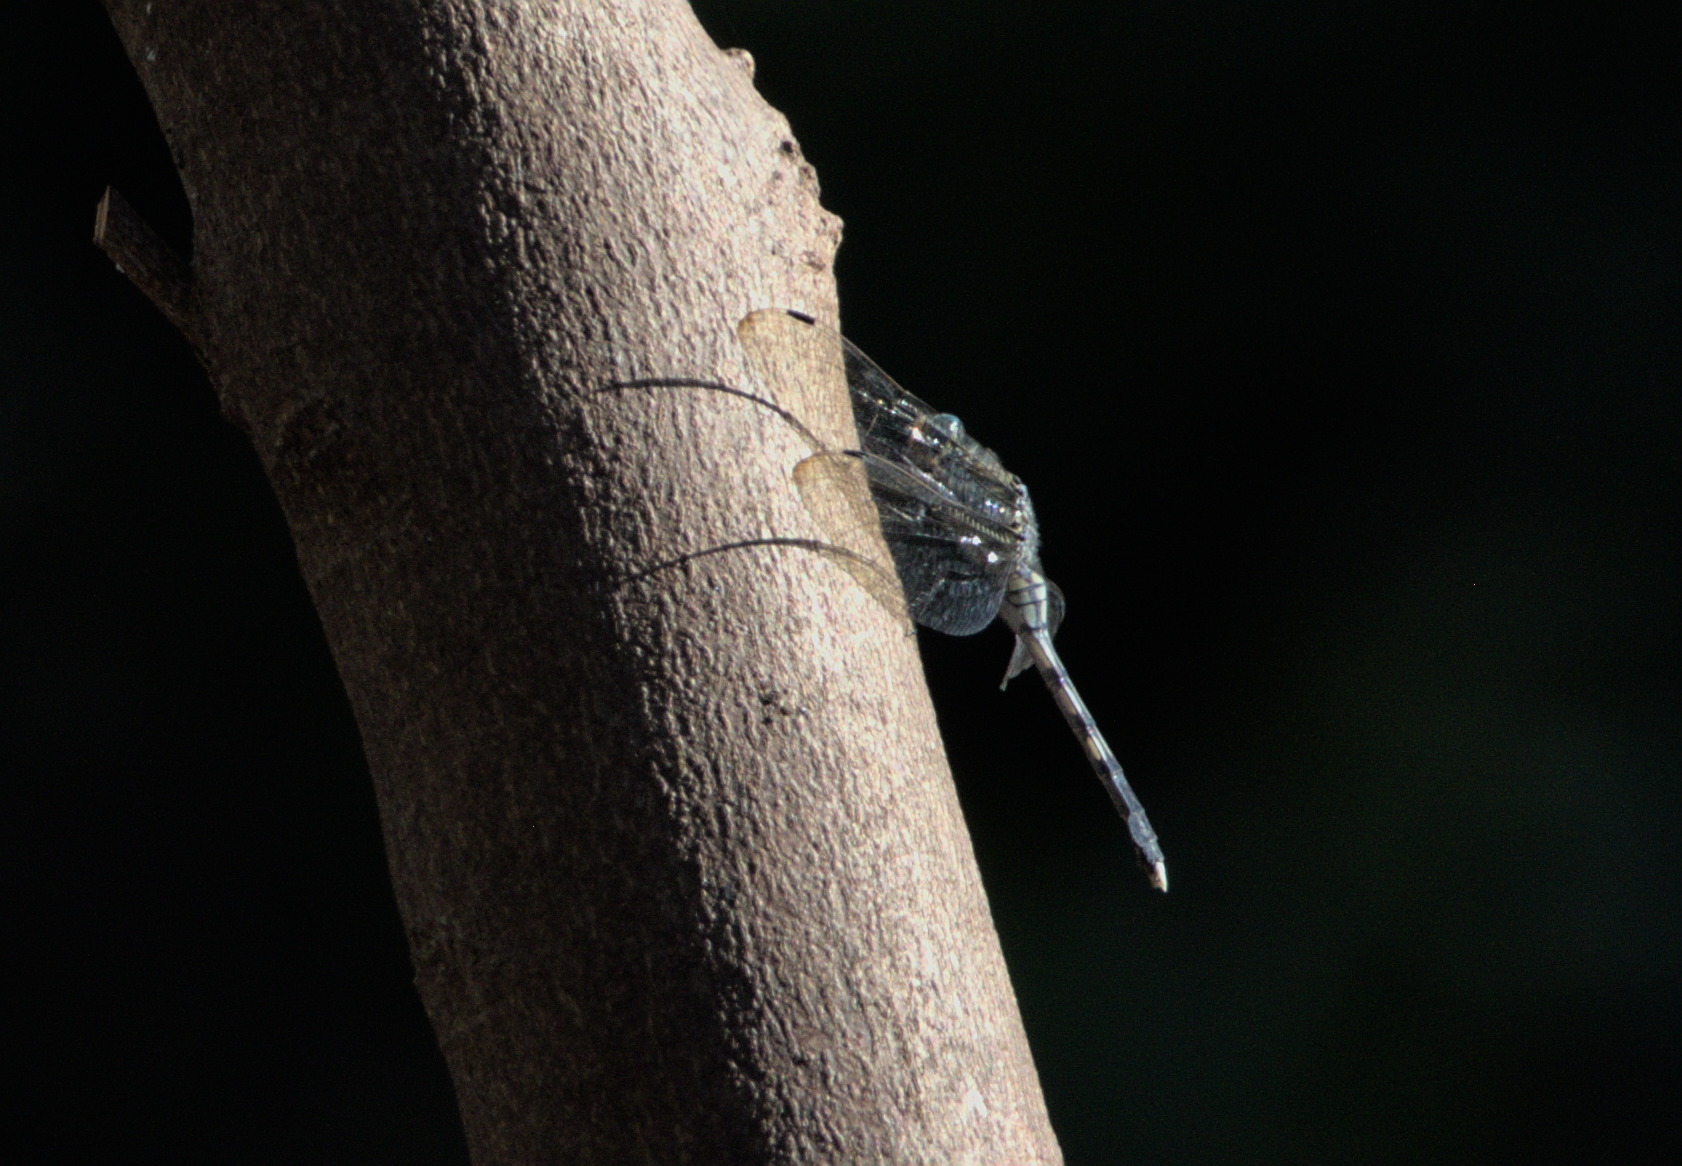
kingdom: Animalia
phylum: Arthropoda
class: Insecta
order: Odonata
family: Libellulidae
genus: Orthetrum
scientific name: Orthetrum albistylum
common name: White-tailed skimmer
